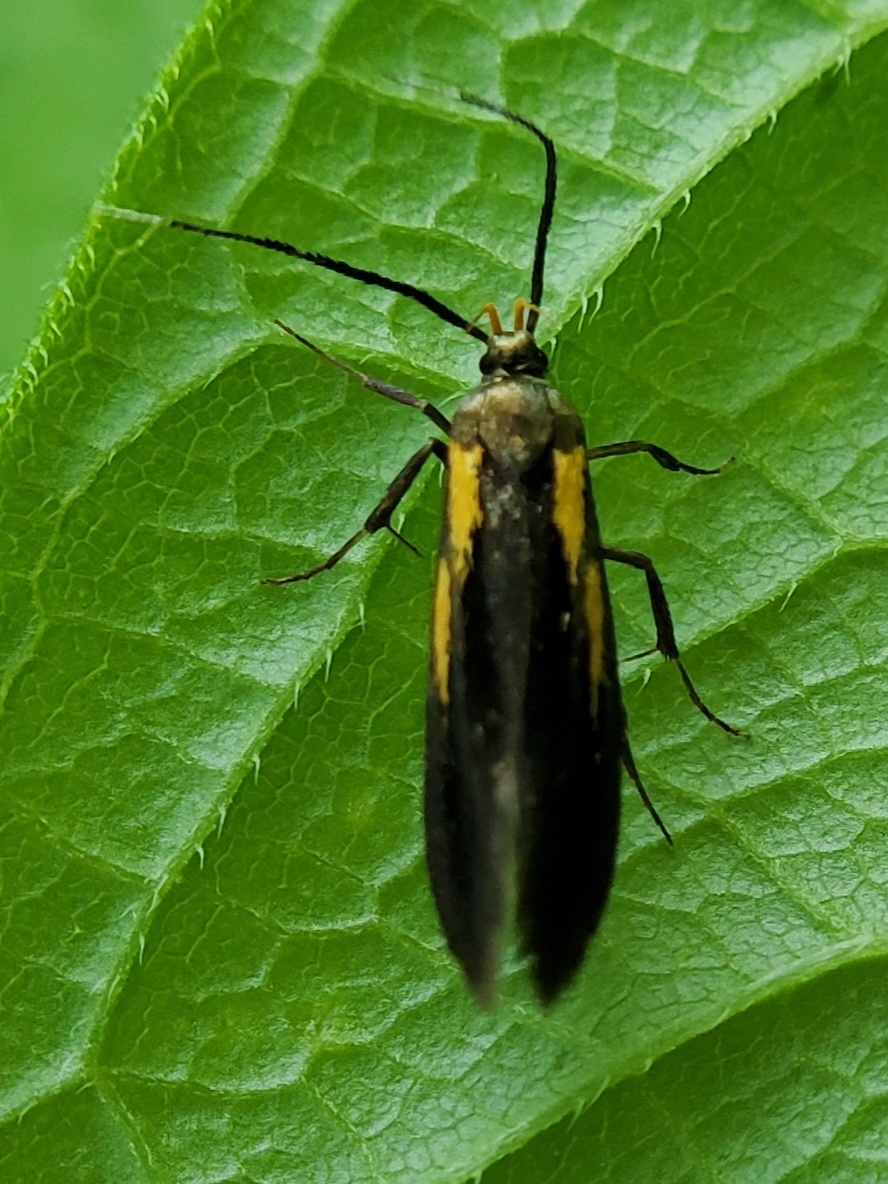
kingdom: Animalia
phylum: Arthropoda
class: Insecta
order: Lepidoptera
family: Oecophoridae
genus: Mathildana
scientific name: Mathildana newmanella
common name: Newman's mathildana moth
